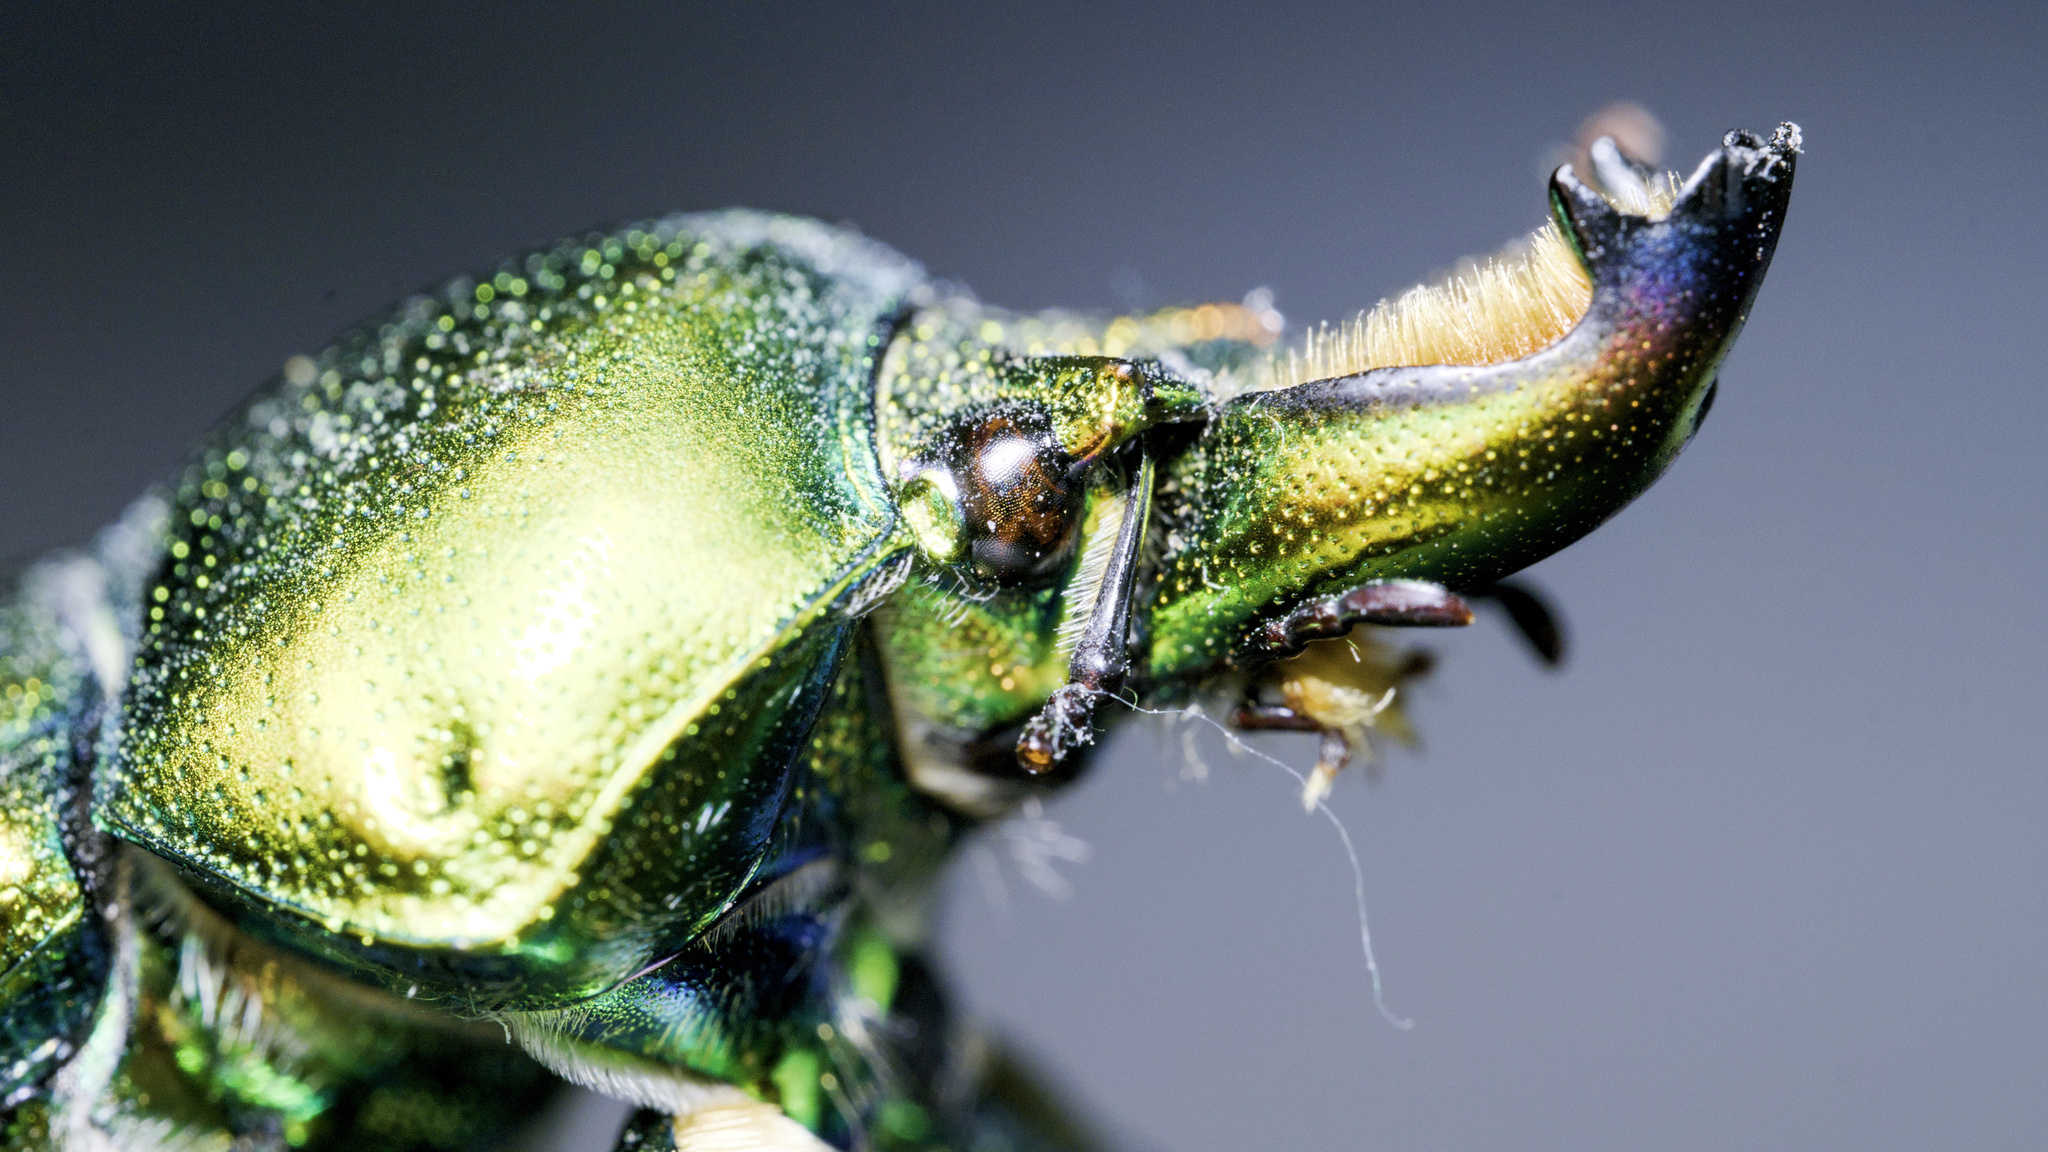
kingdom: Animalia
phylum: Arthropoda
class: Insecta
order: Coleoptera
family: Lucanidae
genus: Lamprima
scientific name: Lamprima aurata
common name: Golden stag beetle
